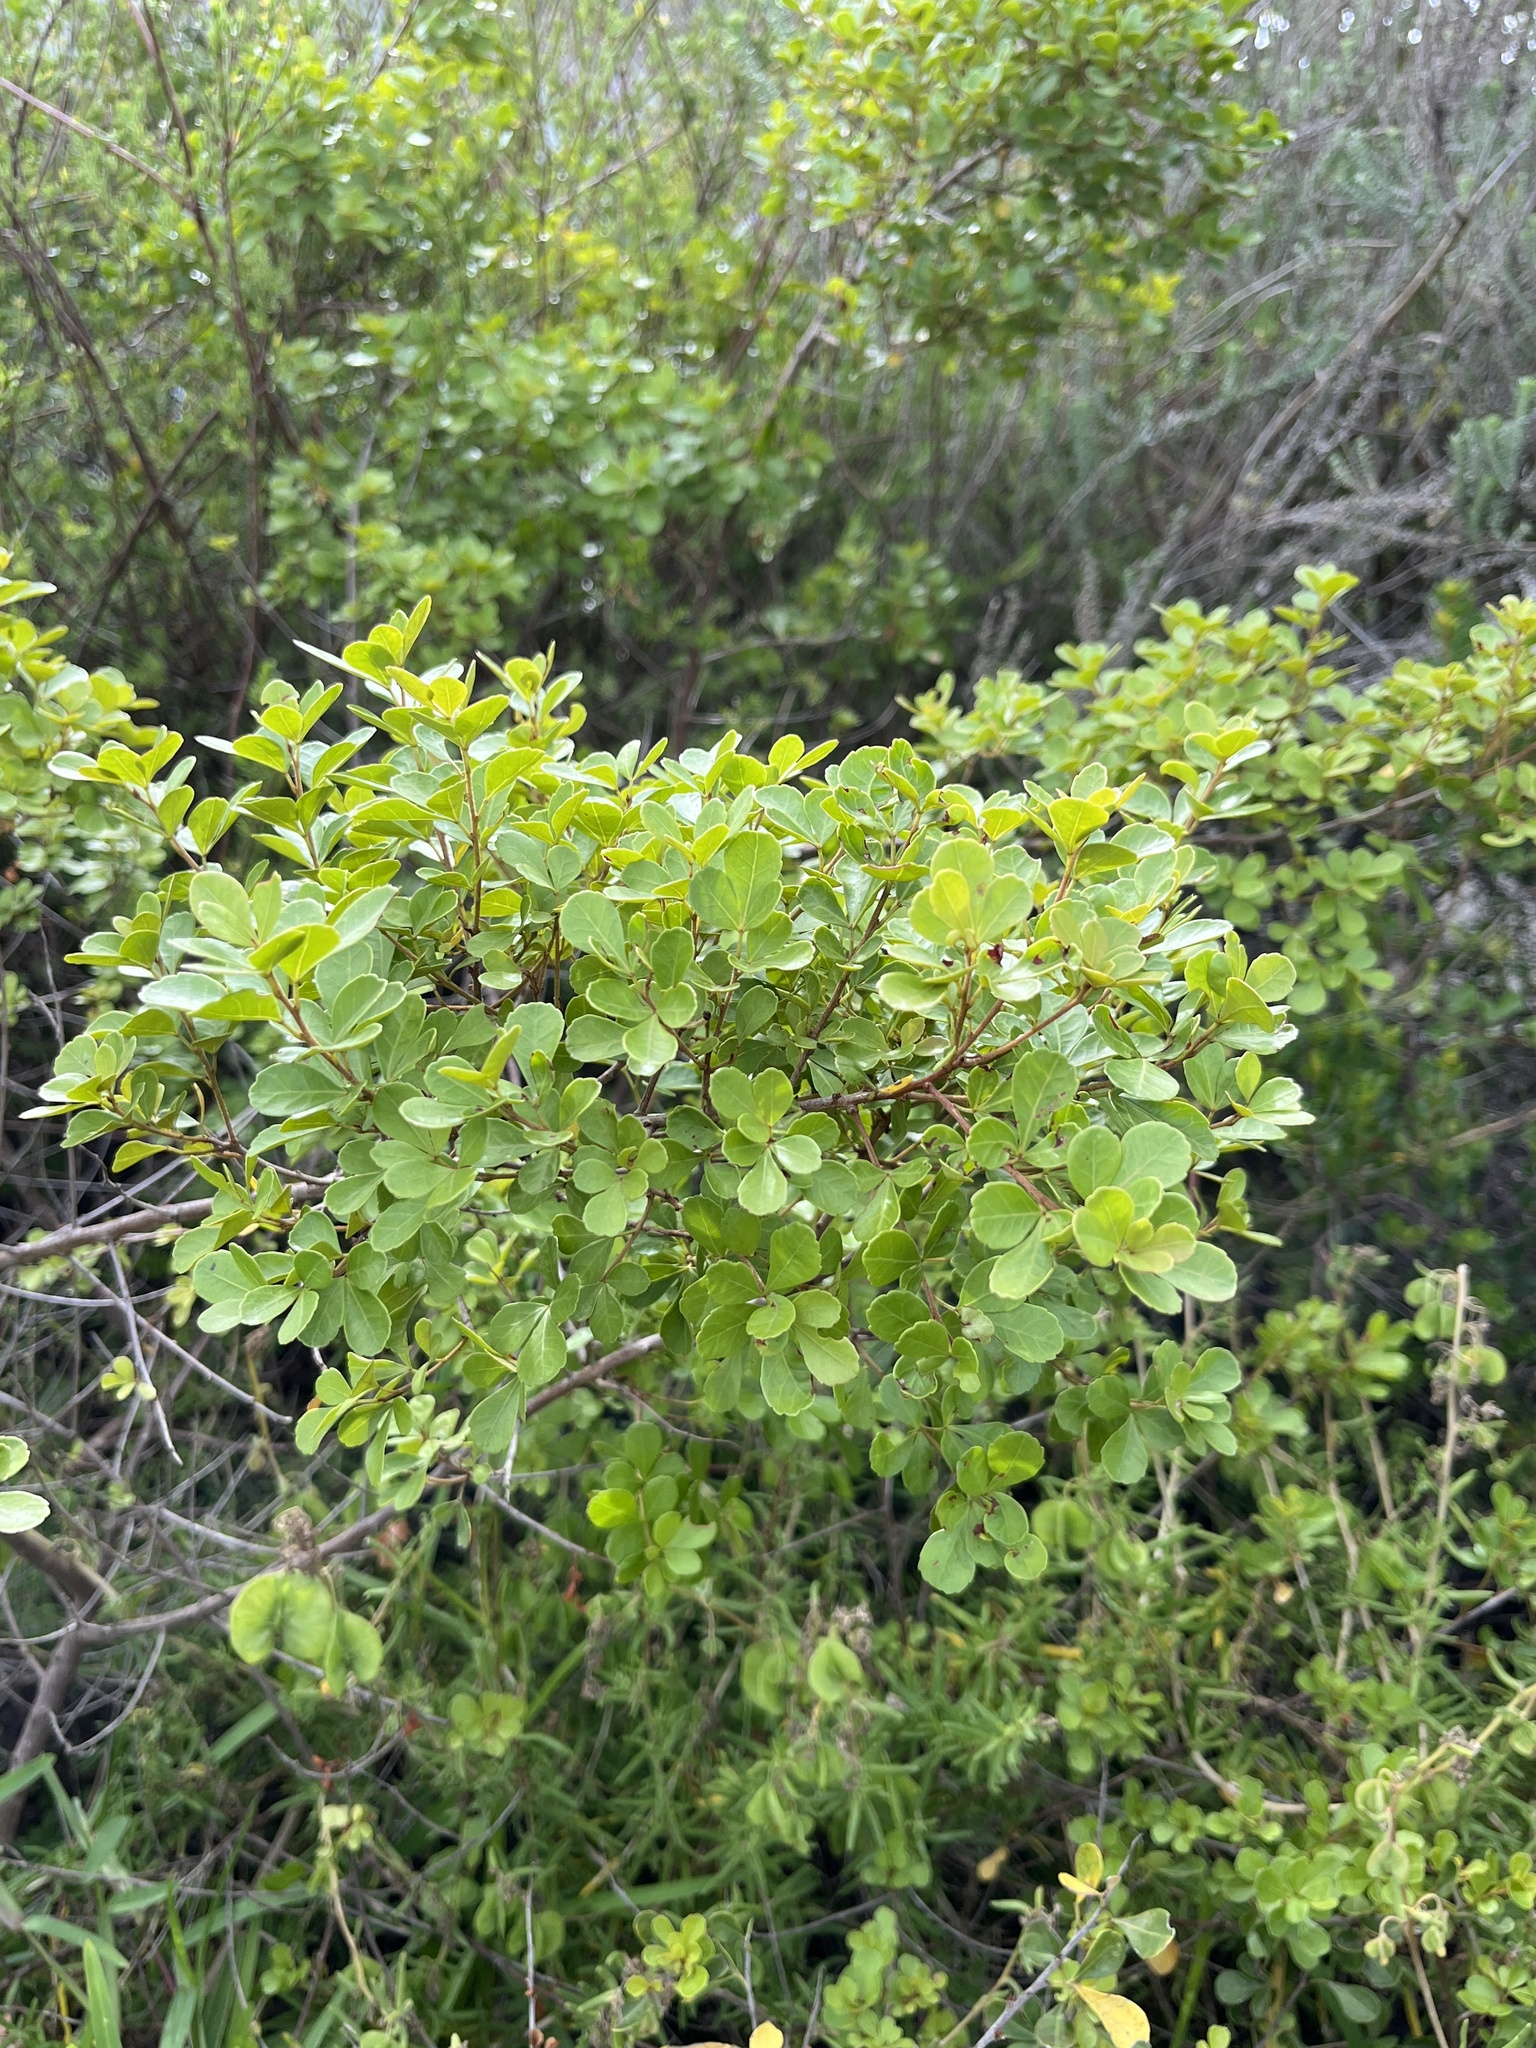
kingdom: Plantae
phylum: Tracheophyta
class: Magnoliopsida
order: Sapindales
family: Anacardiaceae
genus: Searsia
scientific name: Searsia crenata
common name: Crowberry
